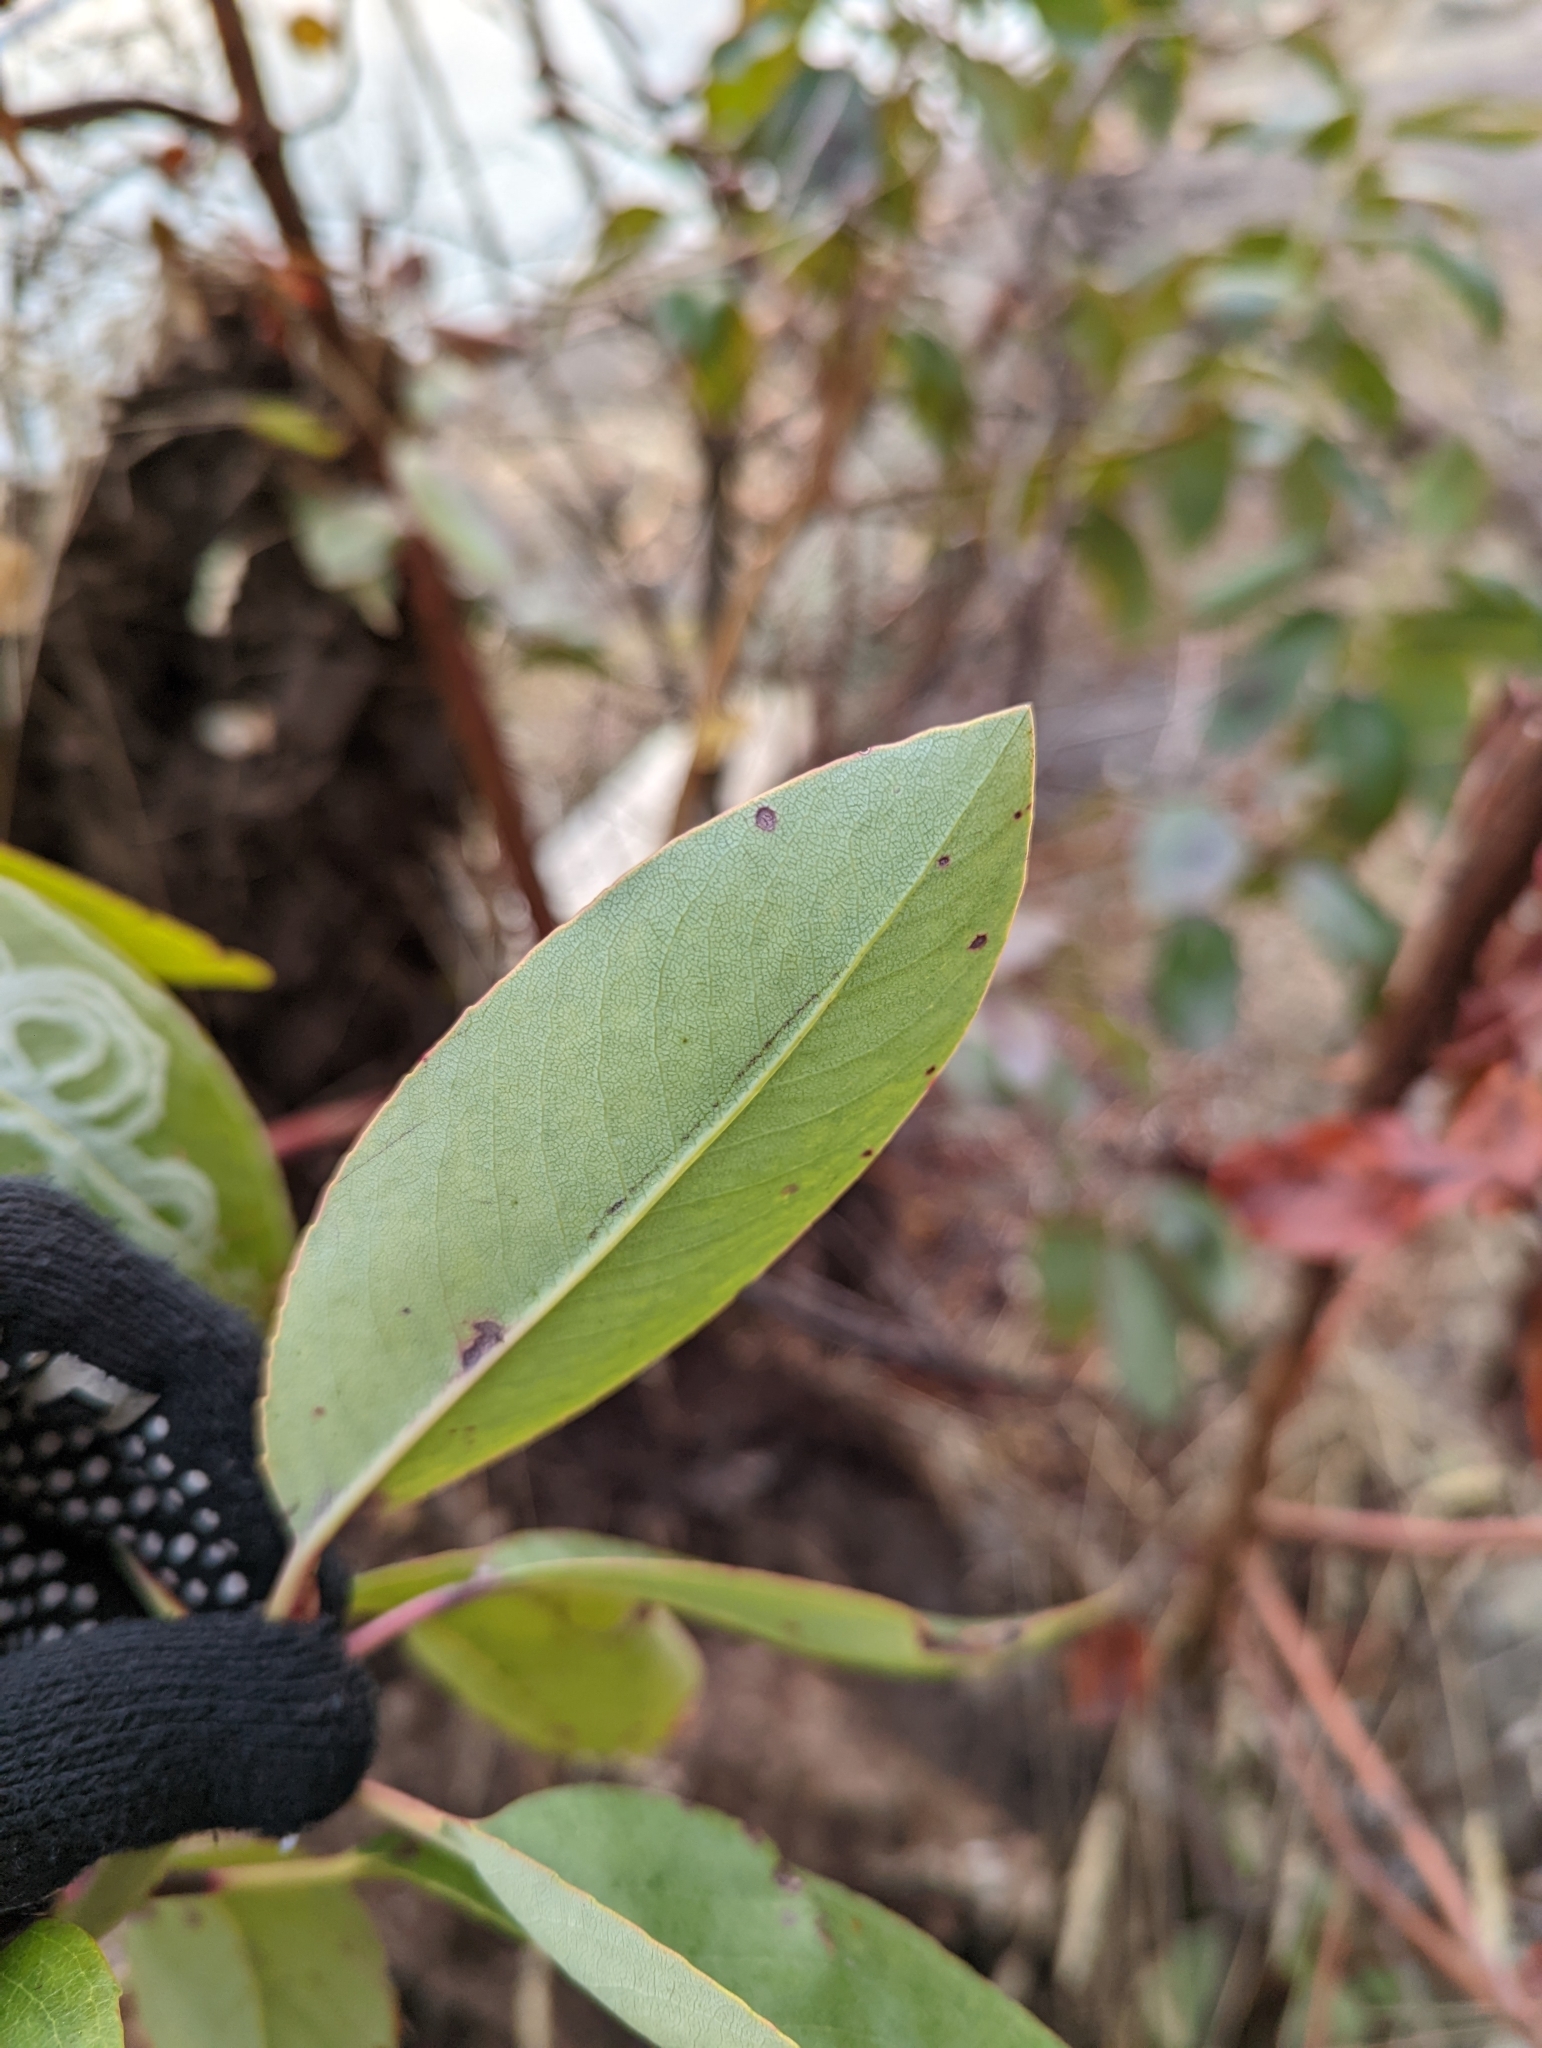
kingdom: Plantae
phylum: Tracheophyta
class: Magnoliopsida
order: Ericales
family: Ericaceae
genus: Arbutus
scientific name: Arbutus menziesii
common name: Pacific madrone
